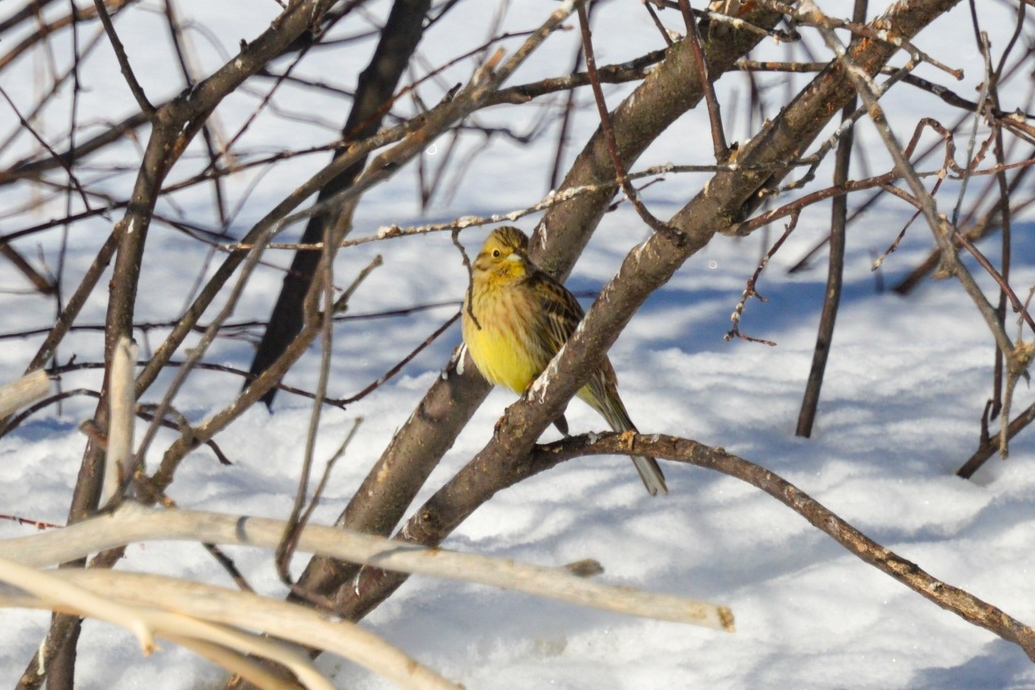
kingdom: Animalia
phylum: Chordata
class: Aves
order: Passeriformes
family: Emberizidae
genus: Emberiza
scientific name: Emberiza citrinella
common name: Yellowhammer
